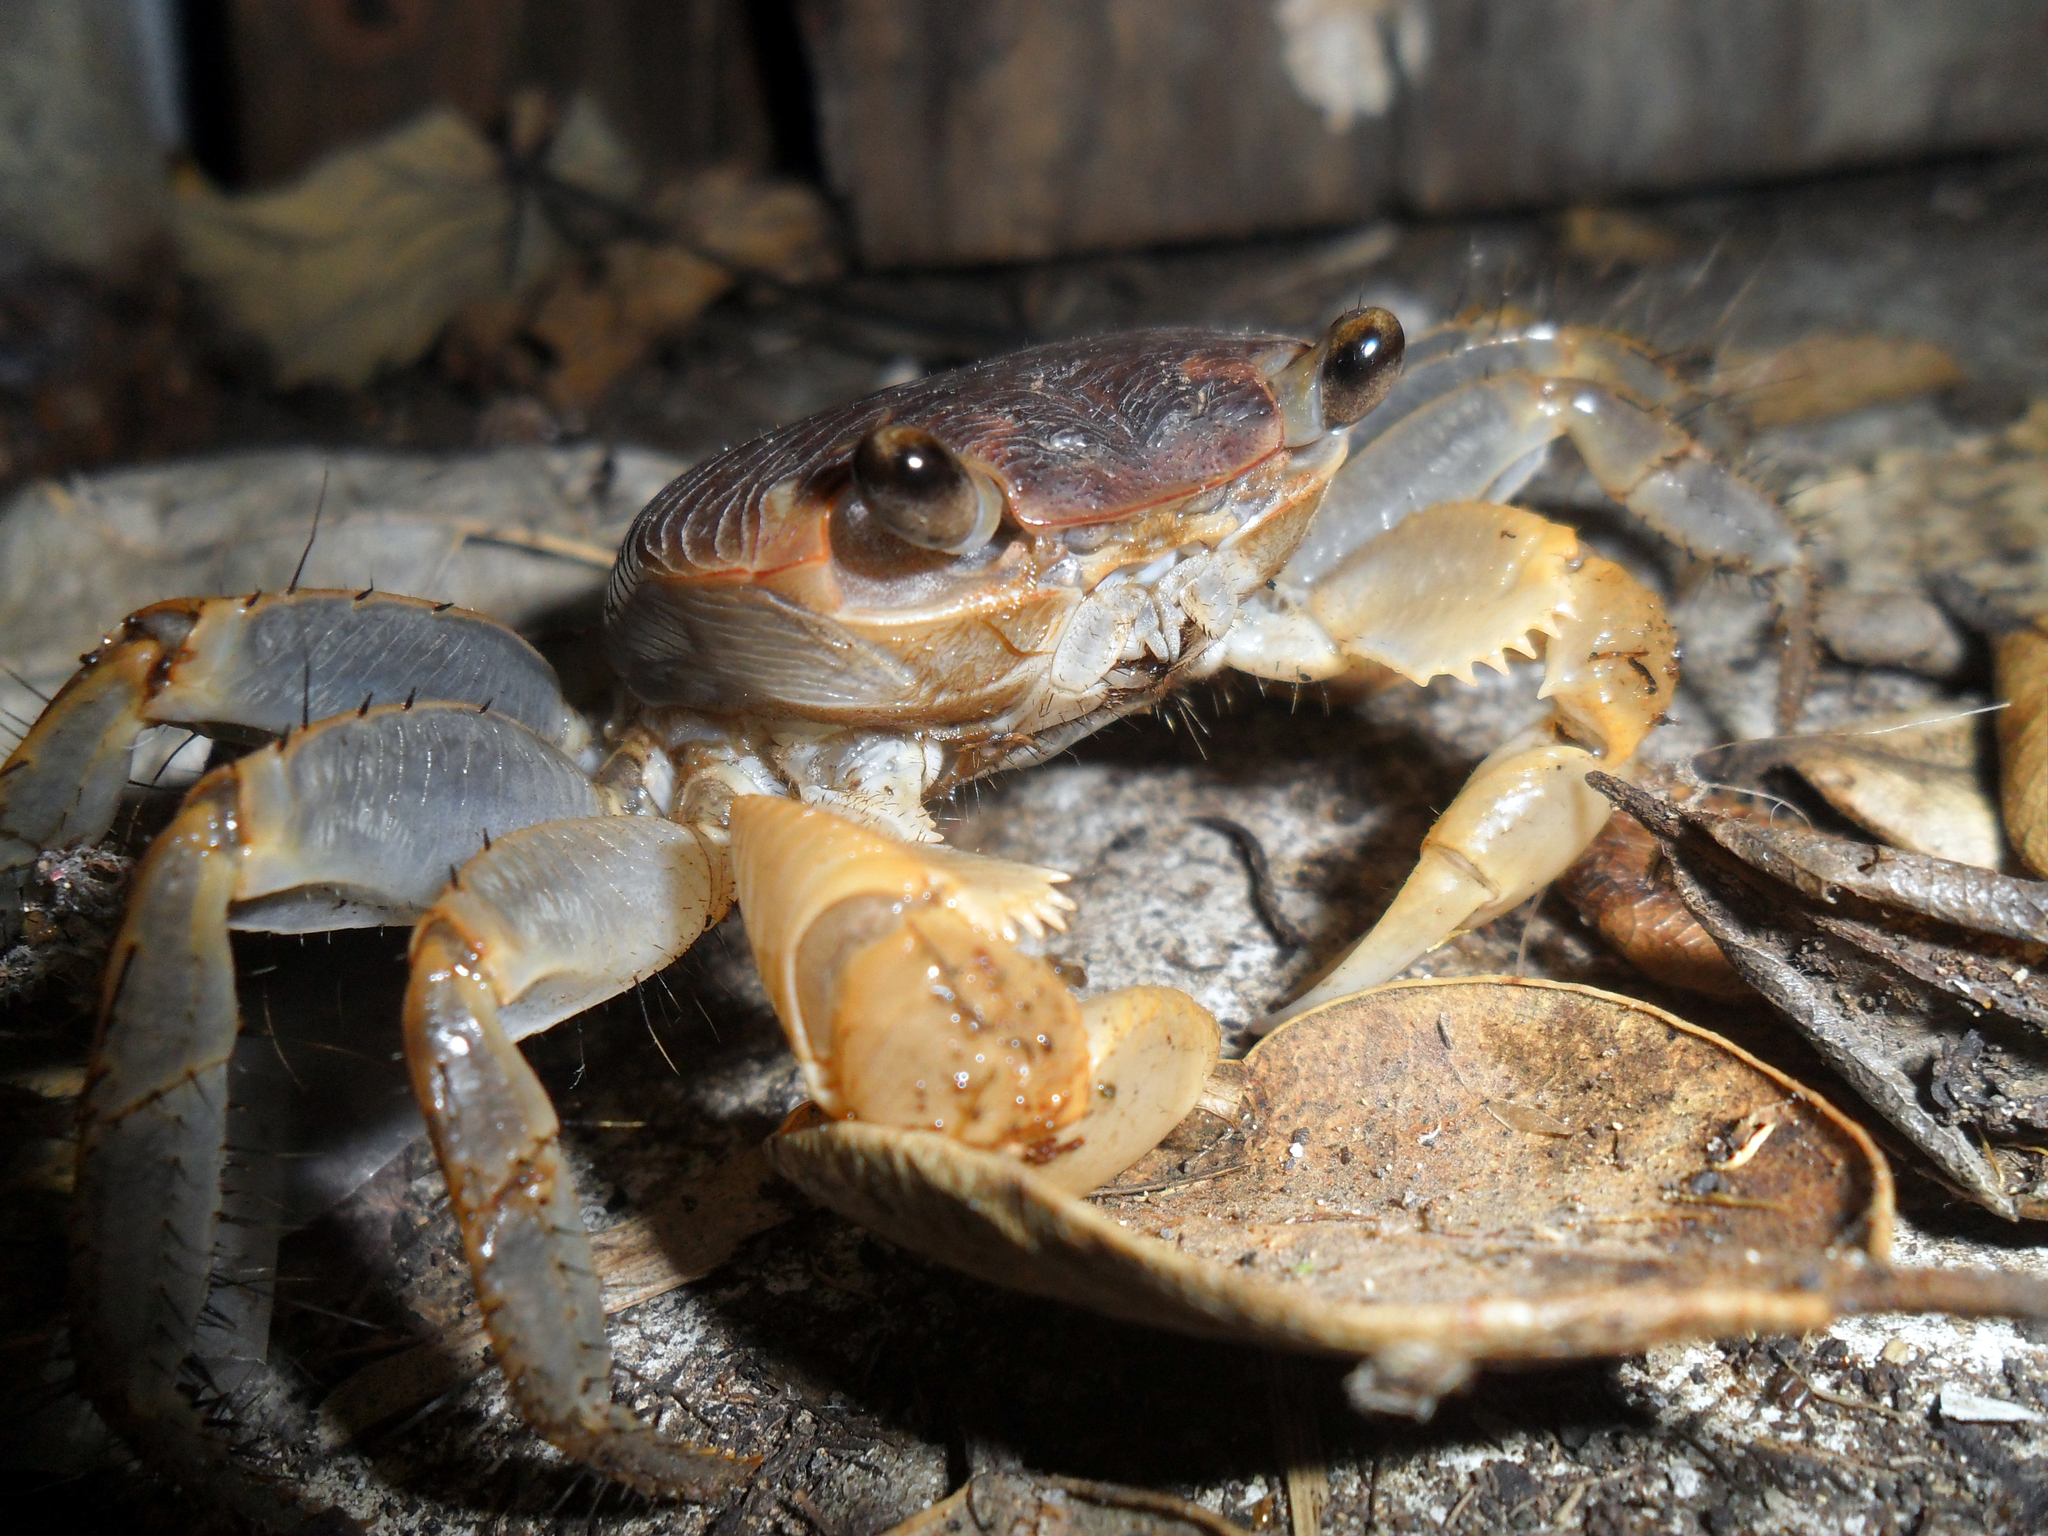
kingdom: Animalia
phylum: Arthropoda
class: Malacostraca
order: Decapoda
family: Grapsidae
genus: Geograpsus
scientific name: Geograpsus grayi
